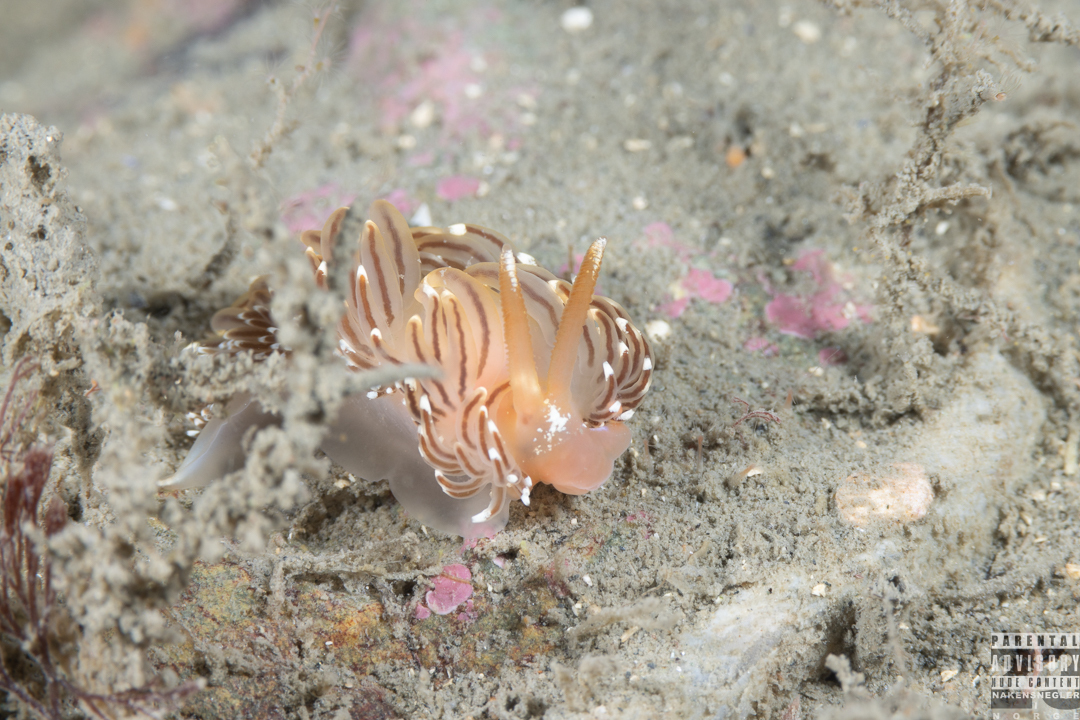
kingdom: Animalia
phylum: Mollusca
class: Gastropoda
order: Nudibranchia
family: Facelinidae
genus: Facelina
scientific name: Facelina bostoniensis
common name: Boston facelina
